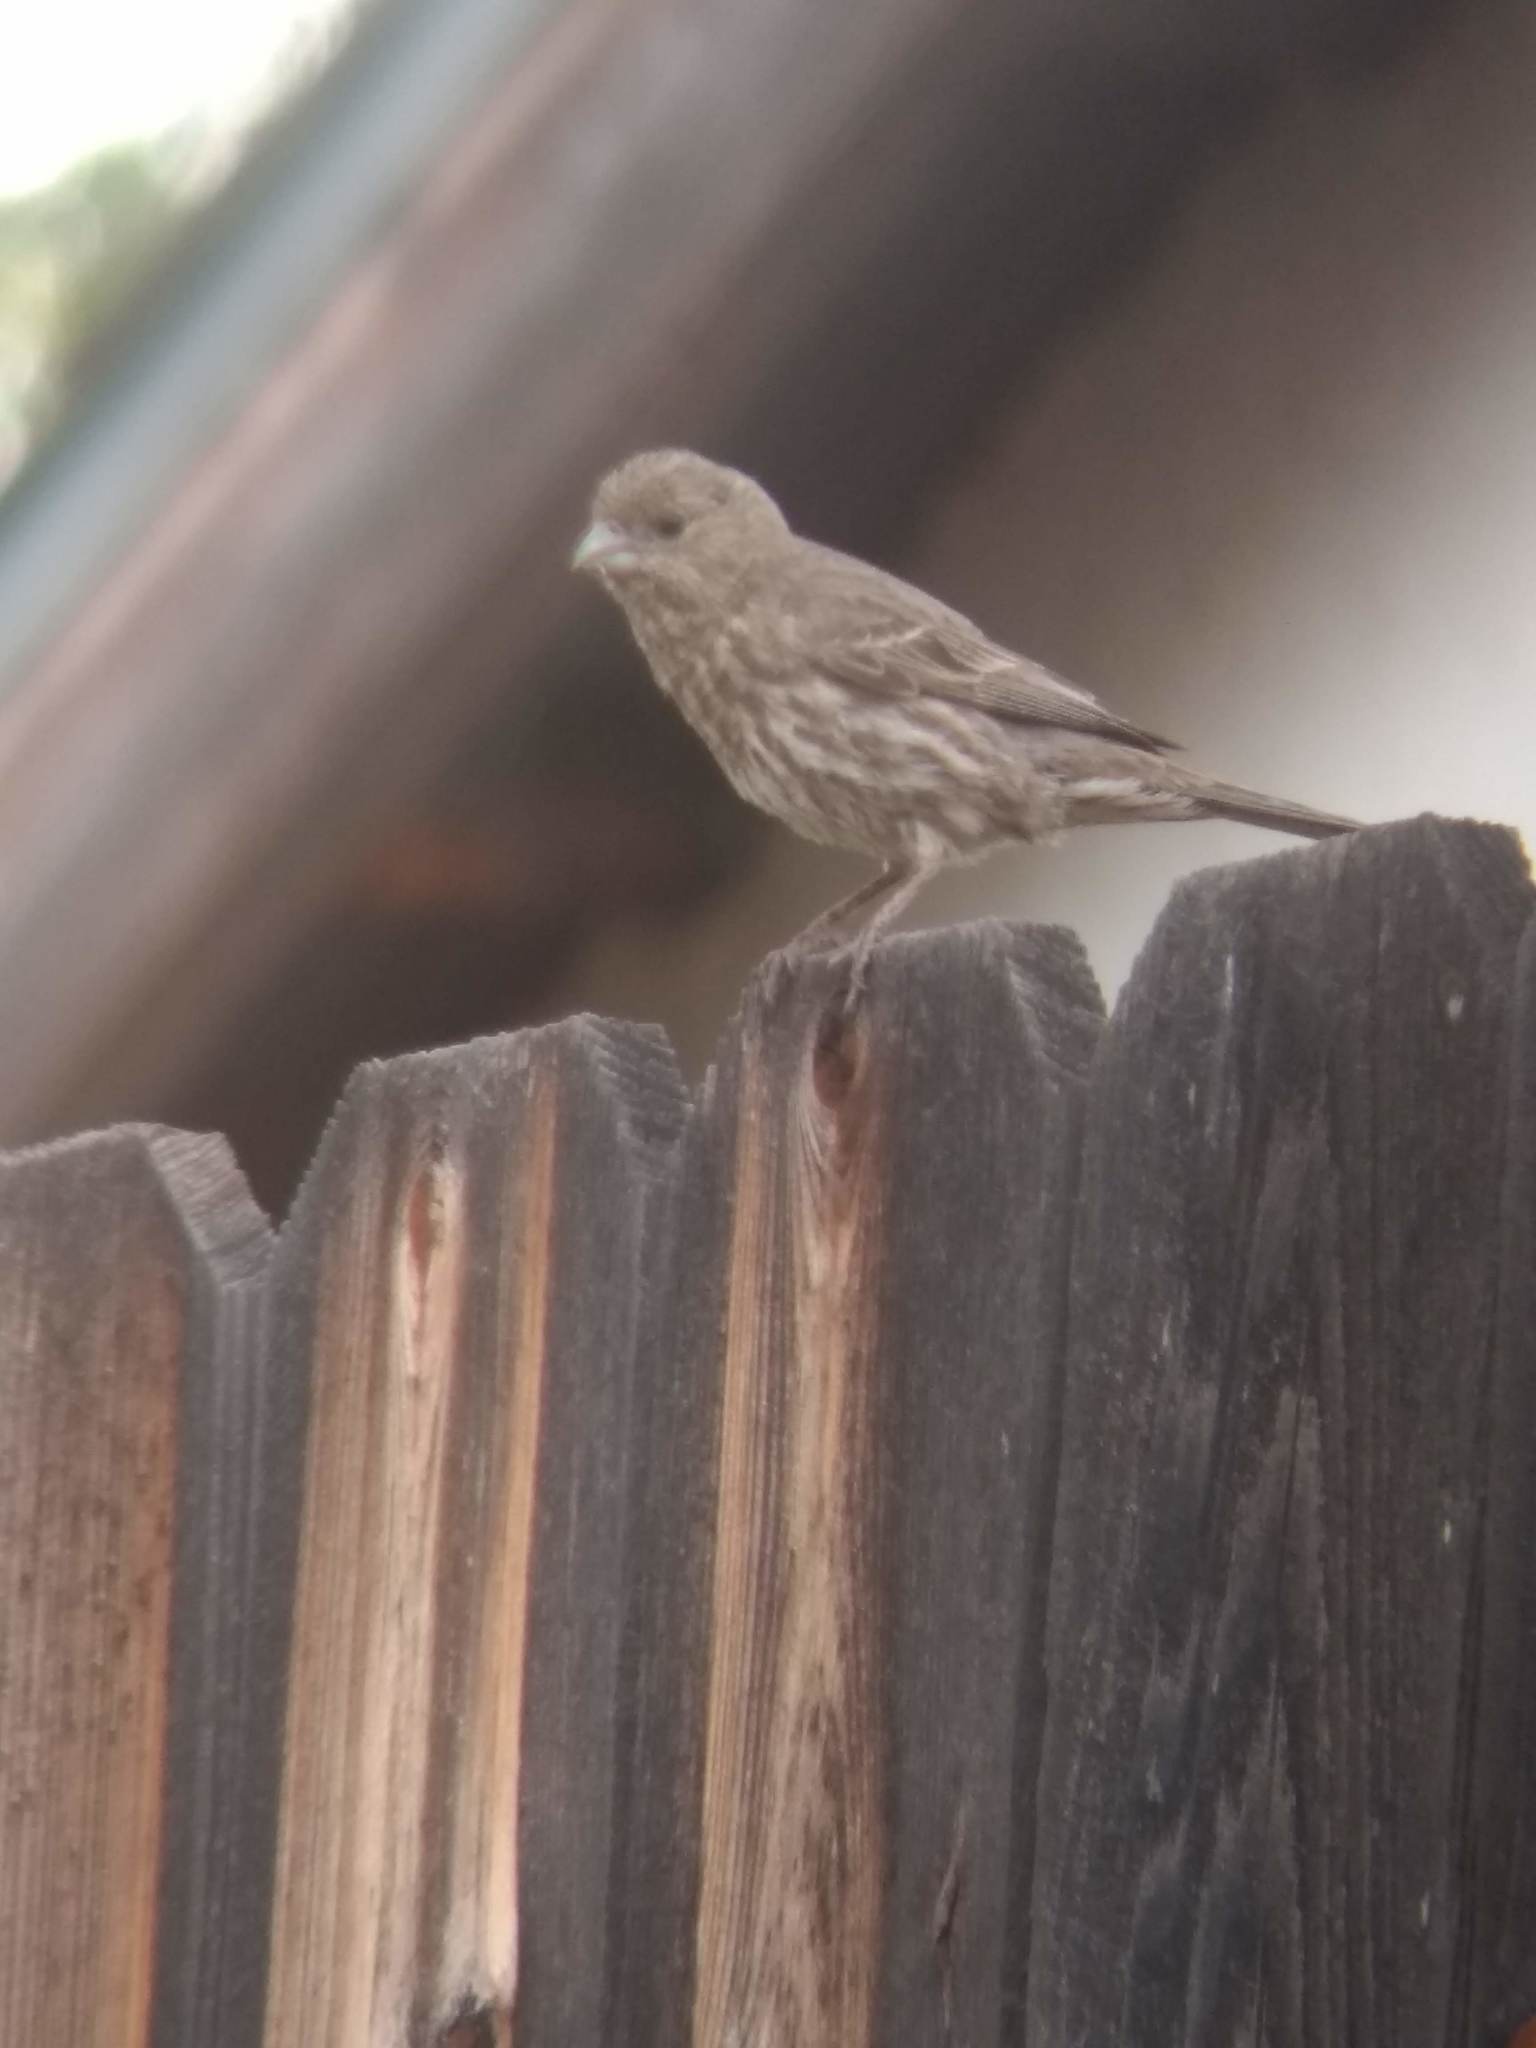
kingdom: Animalia
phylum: Chordata
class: Aves
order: Passeriformes
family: Fringillidae
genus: Haemorhous
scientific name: Haemorhous mexicanus
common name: House finch
